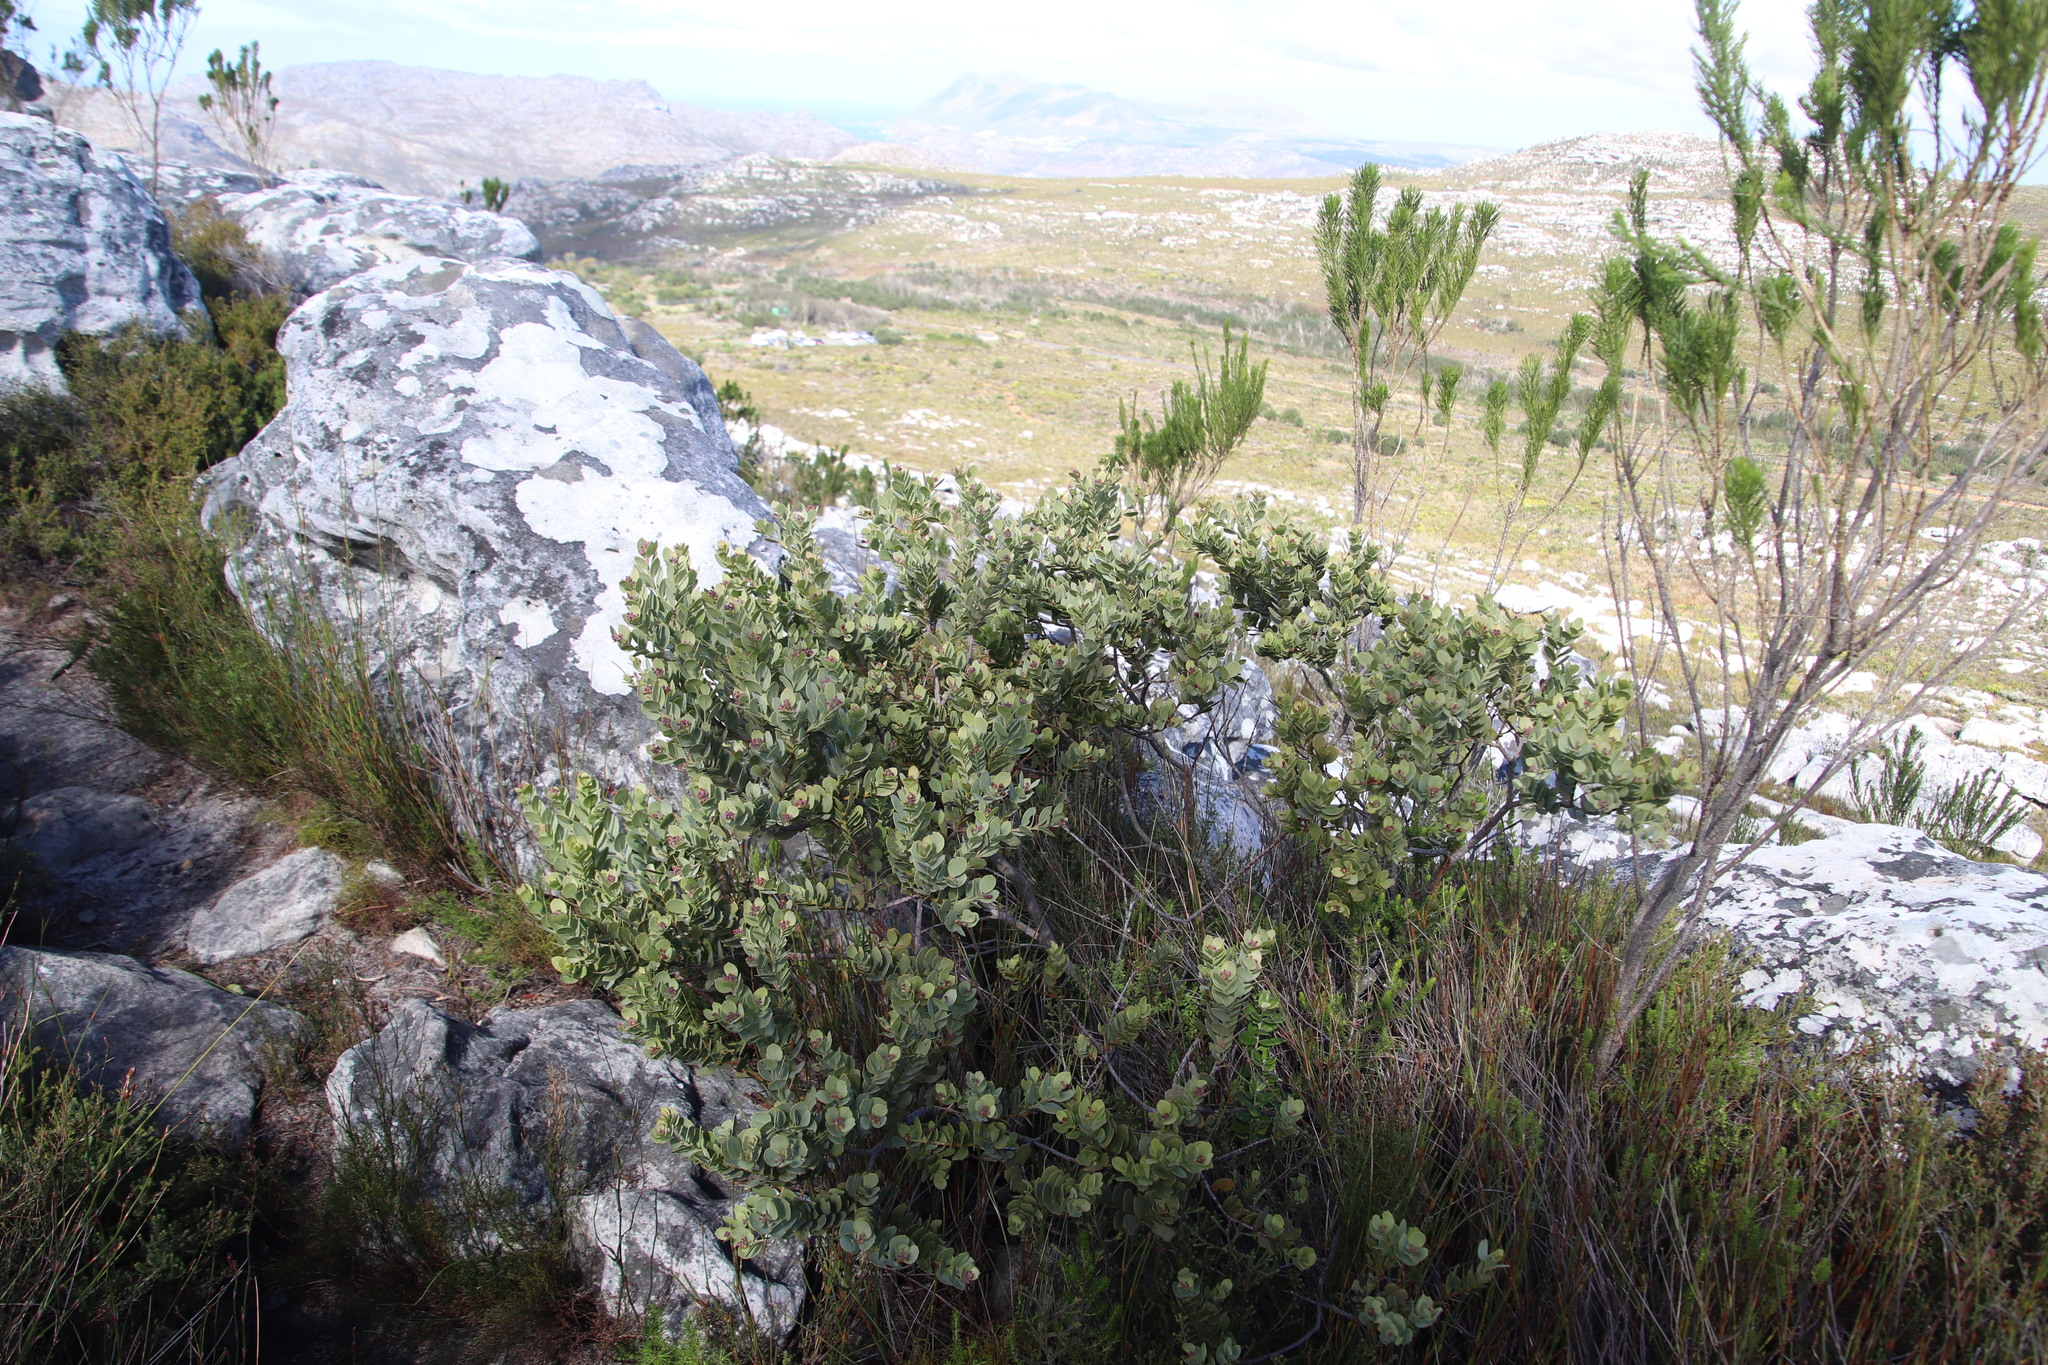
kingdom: Plantae
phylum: Tracheophyta
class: Magnoliopsida
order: Santalales
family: Santalaceae
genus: Osyris
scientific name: Osyris compressa
